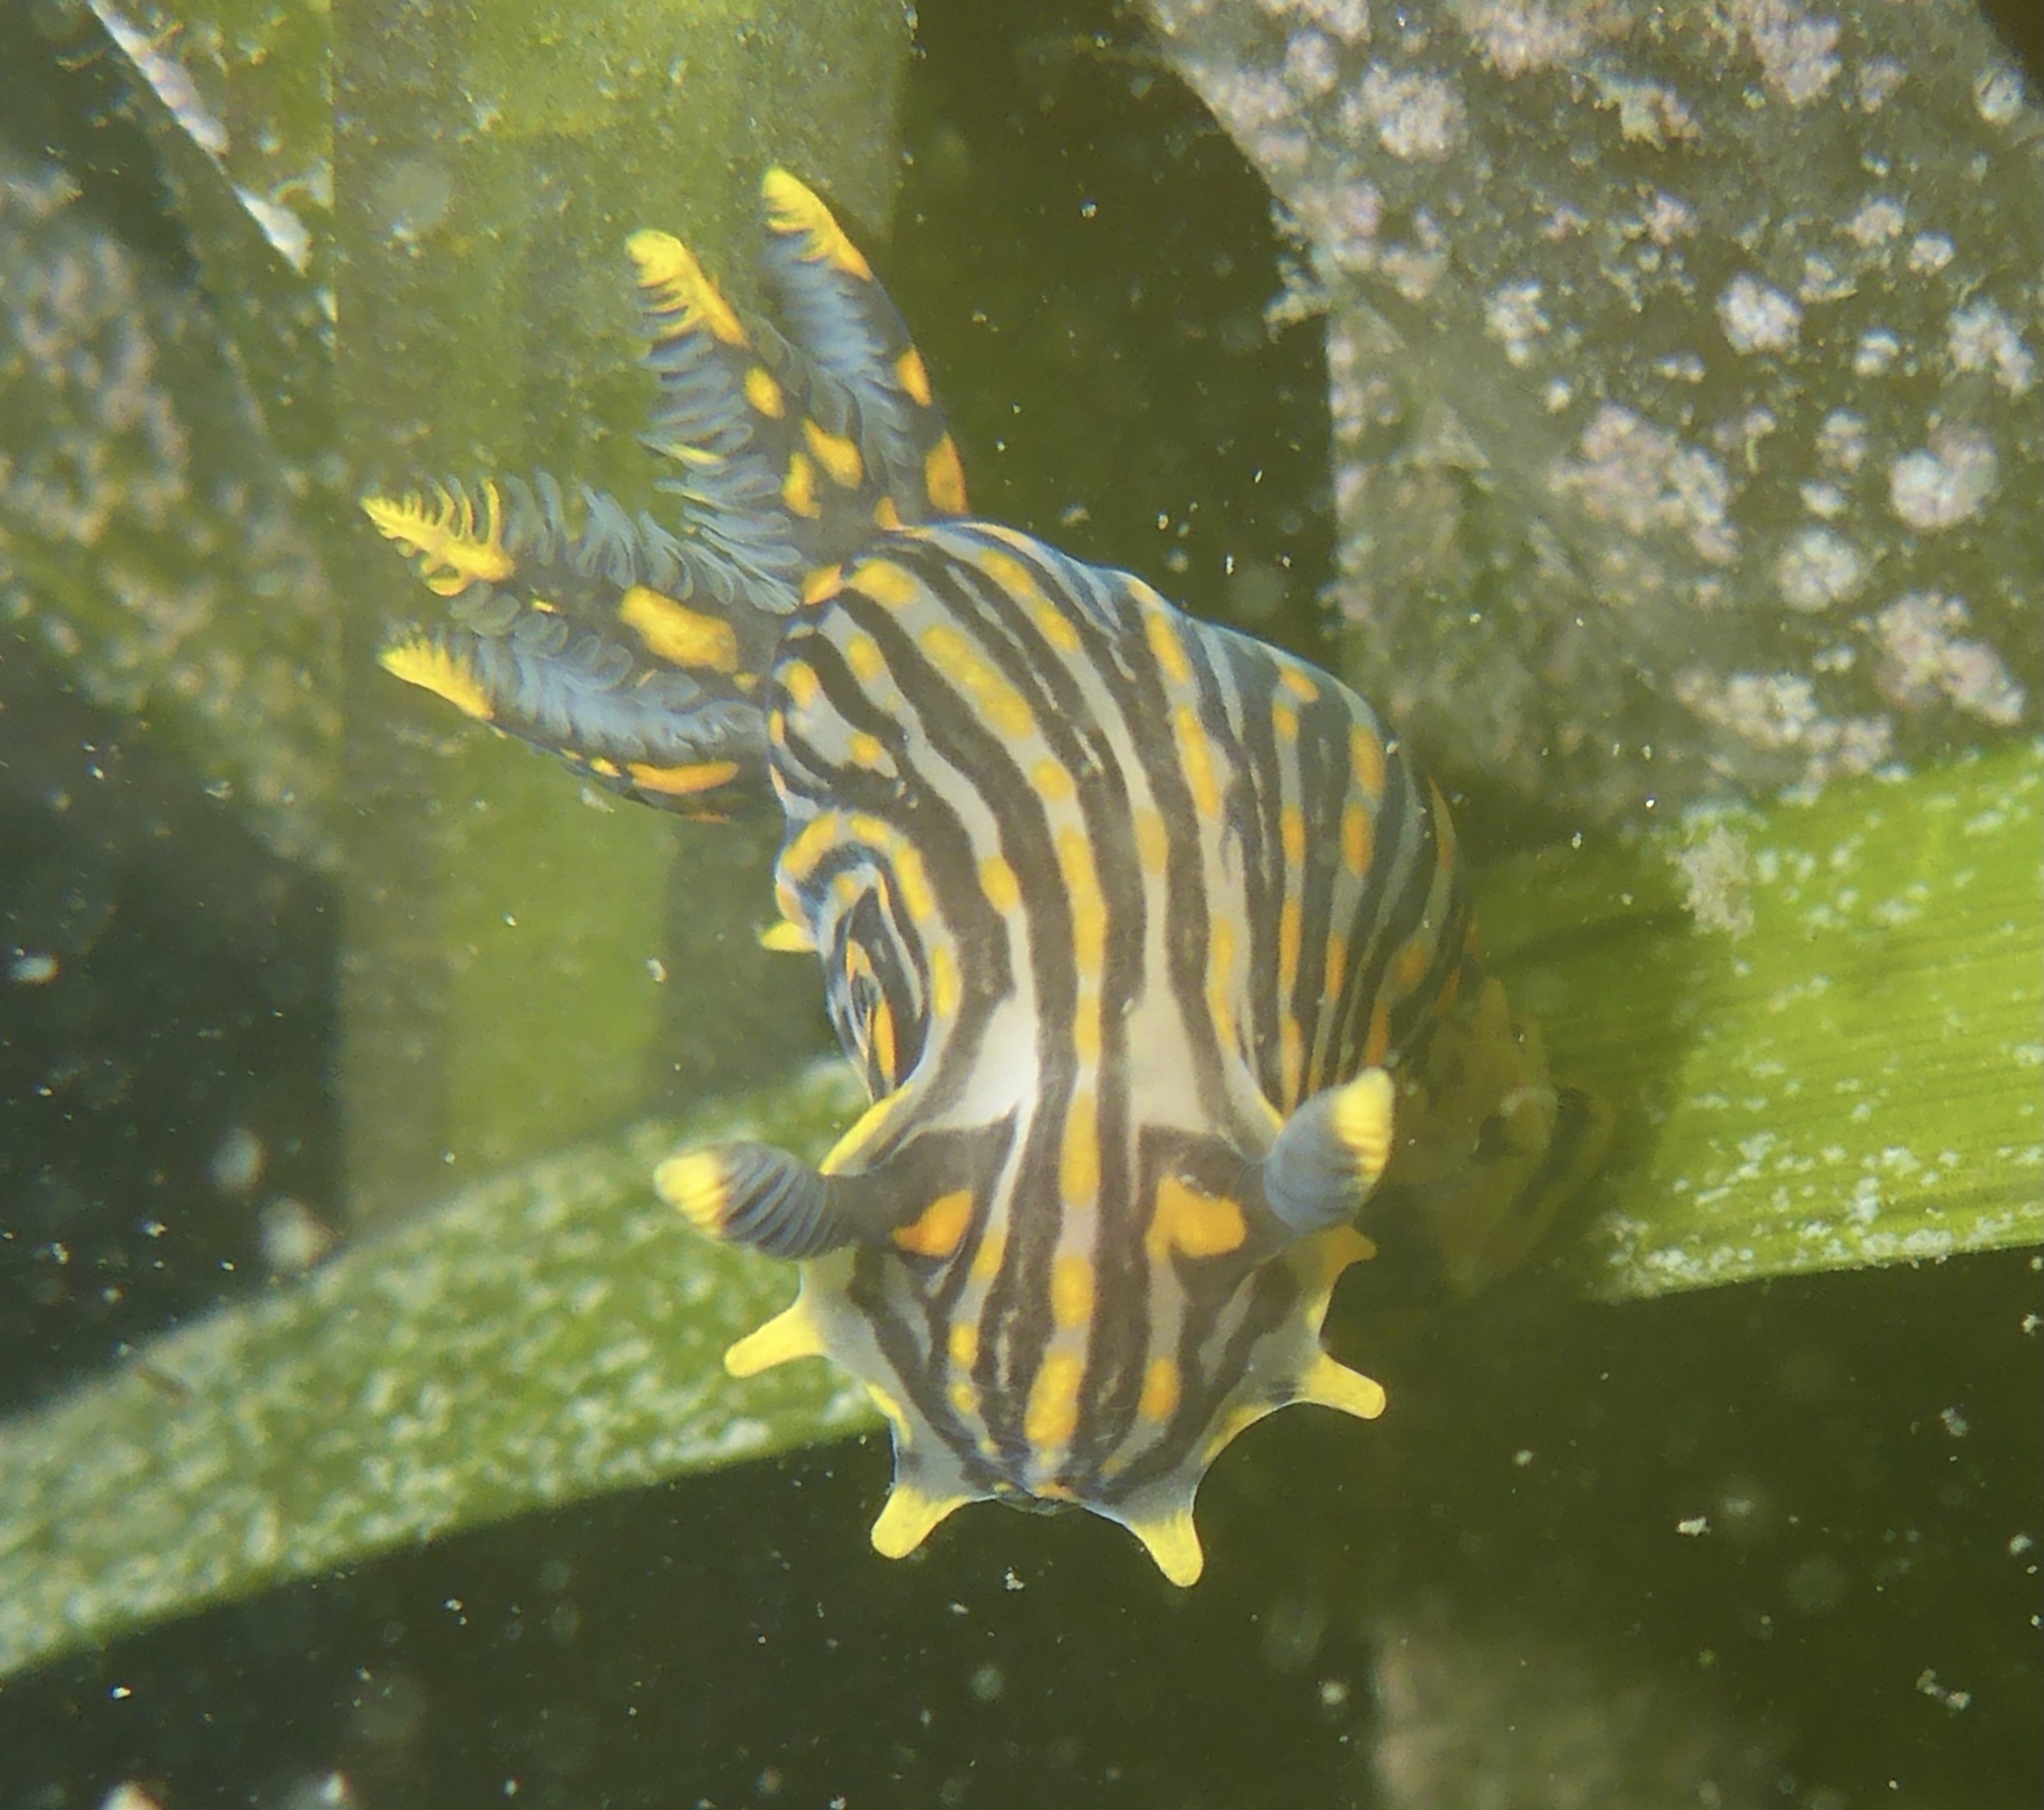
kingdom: Animalia
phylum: Mollusca
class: Gastropoda
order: Nudibranchia
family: Polyceridae
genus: Polycera
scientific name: Polycera atra
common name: Orange-spike polycera
